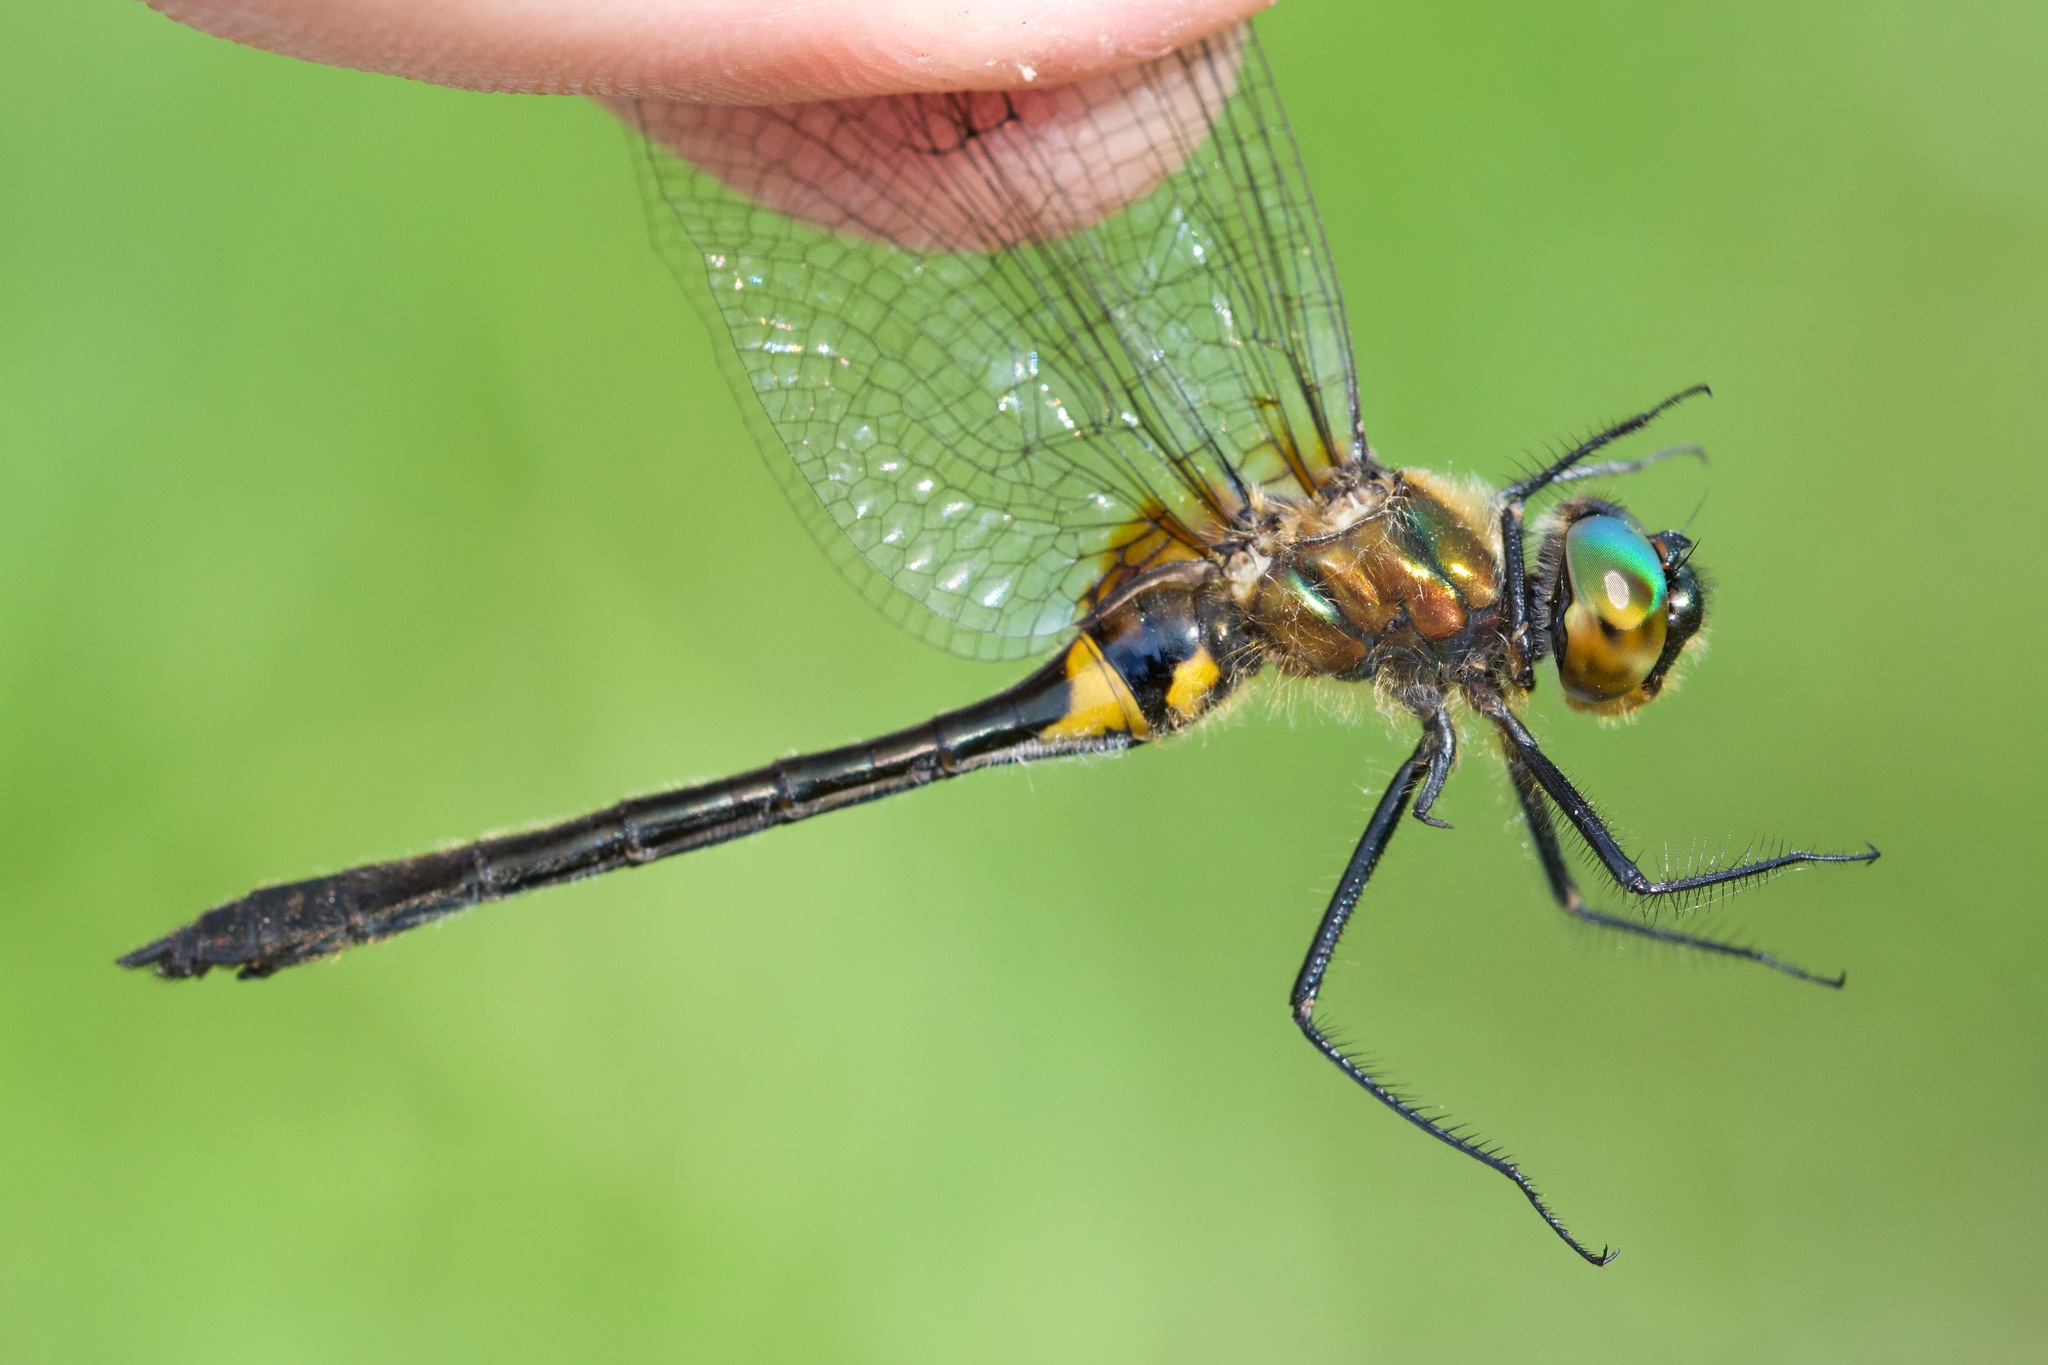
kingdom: Animalia
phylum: Arthropoda
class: Insecta
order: Odonata
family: Corduliidae
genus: Dorocordulia
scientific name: Dorocordulia libera
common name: Racket-tailed emerald
